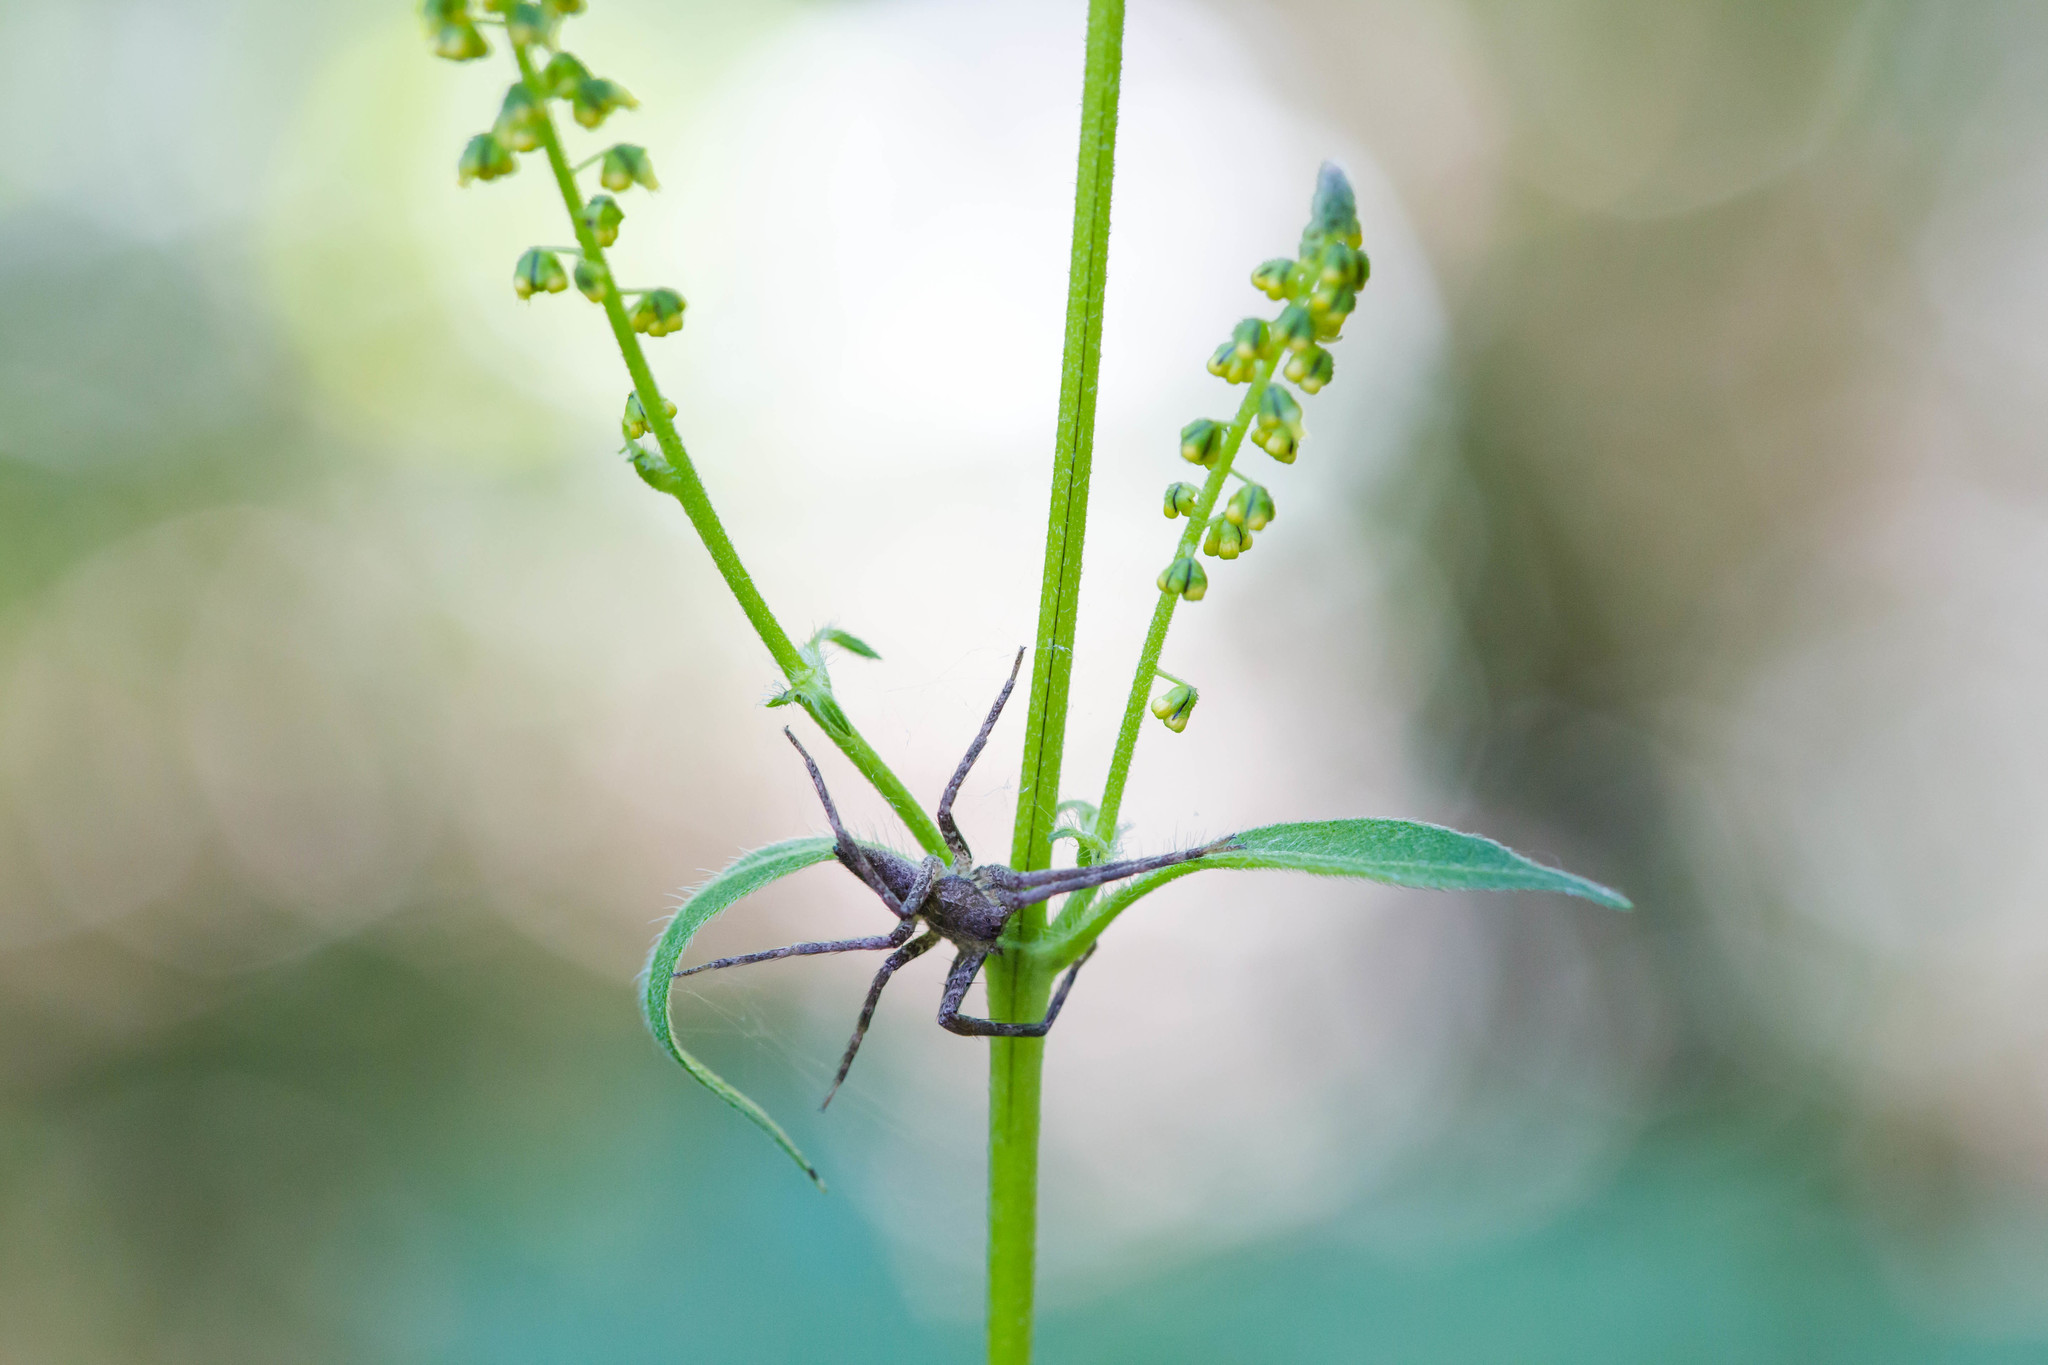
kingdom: Animalia
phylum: Arthropoda
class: Arachnida
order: Araneae
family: Pisauridae
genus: Pisaurina
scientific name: Pisaurina mira
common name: American nursery web spider
